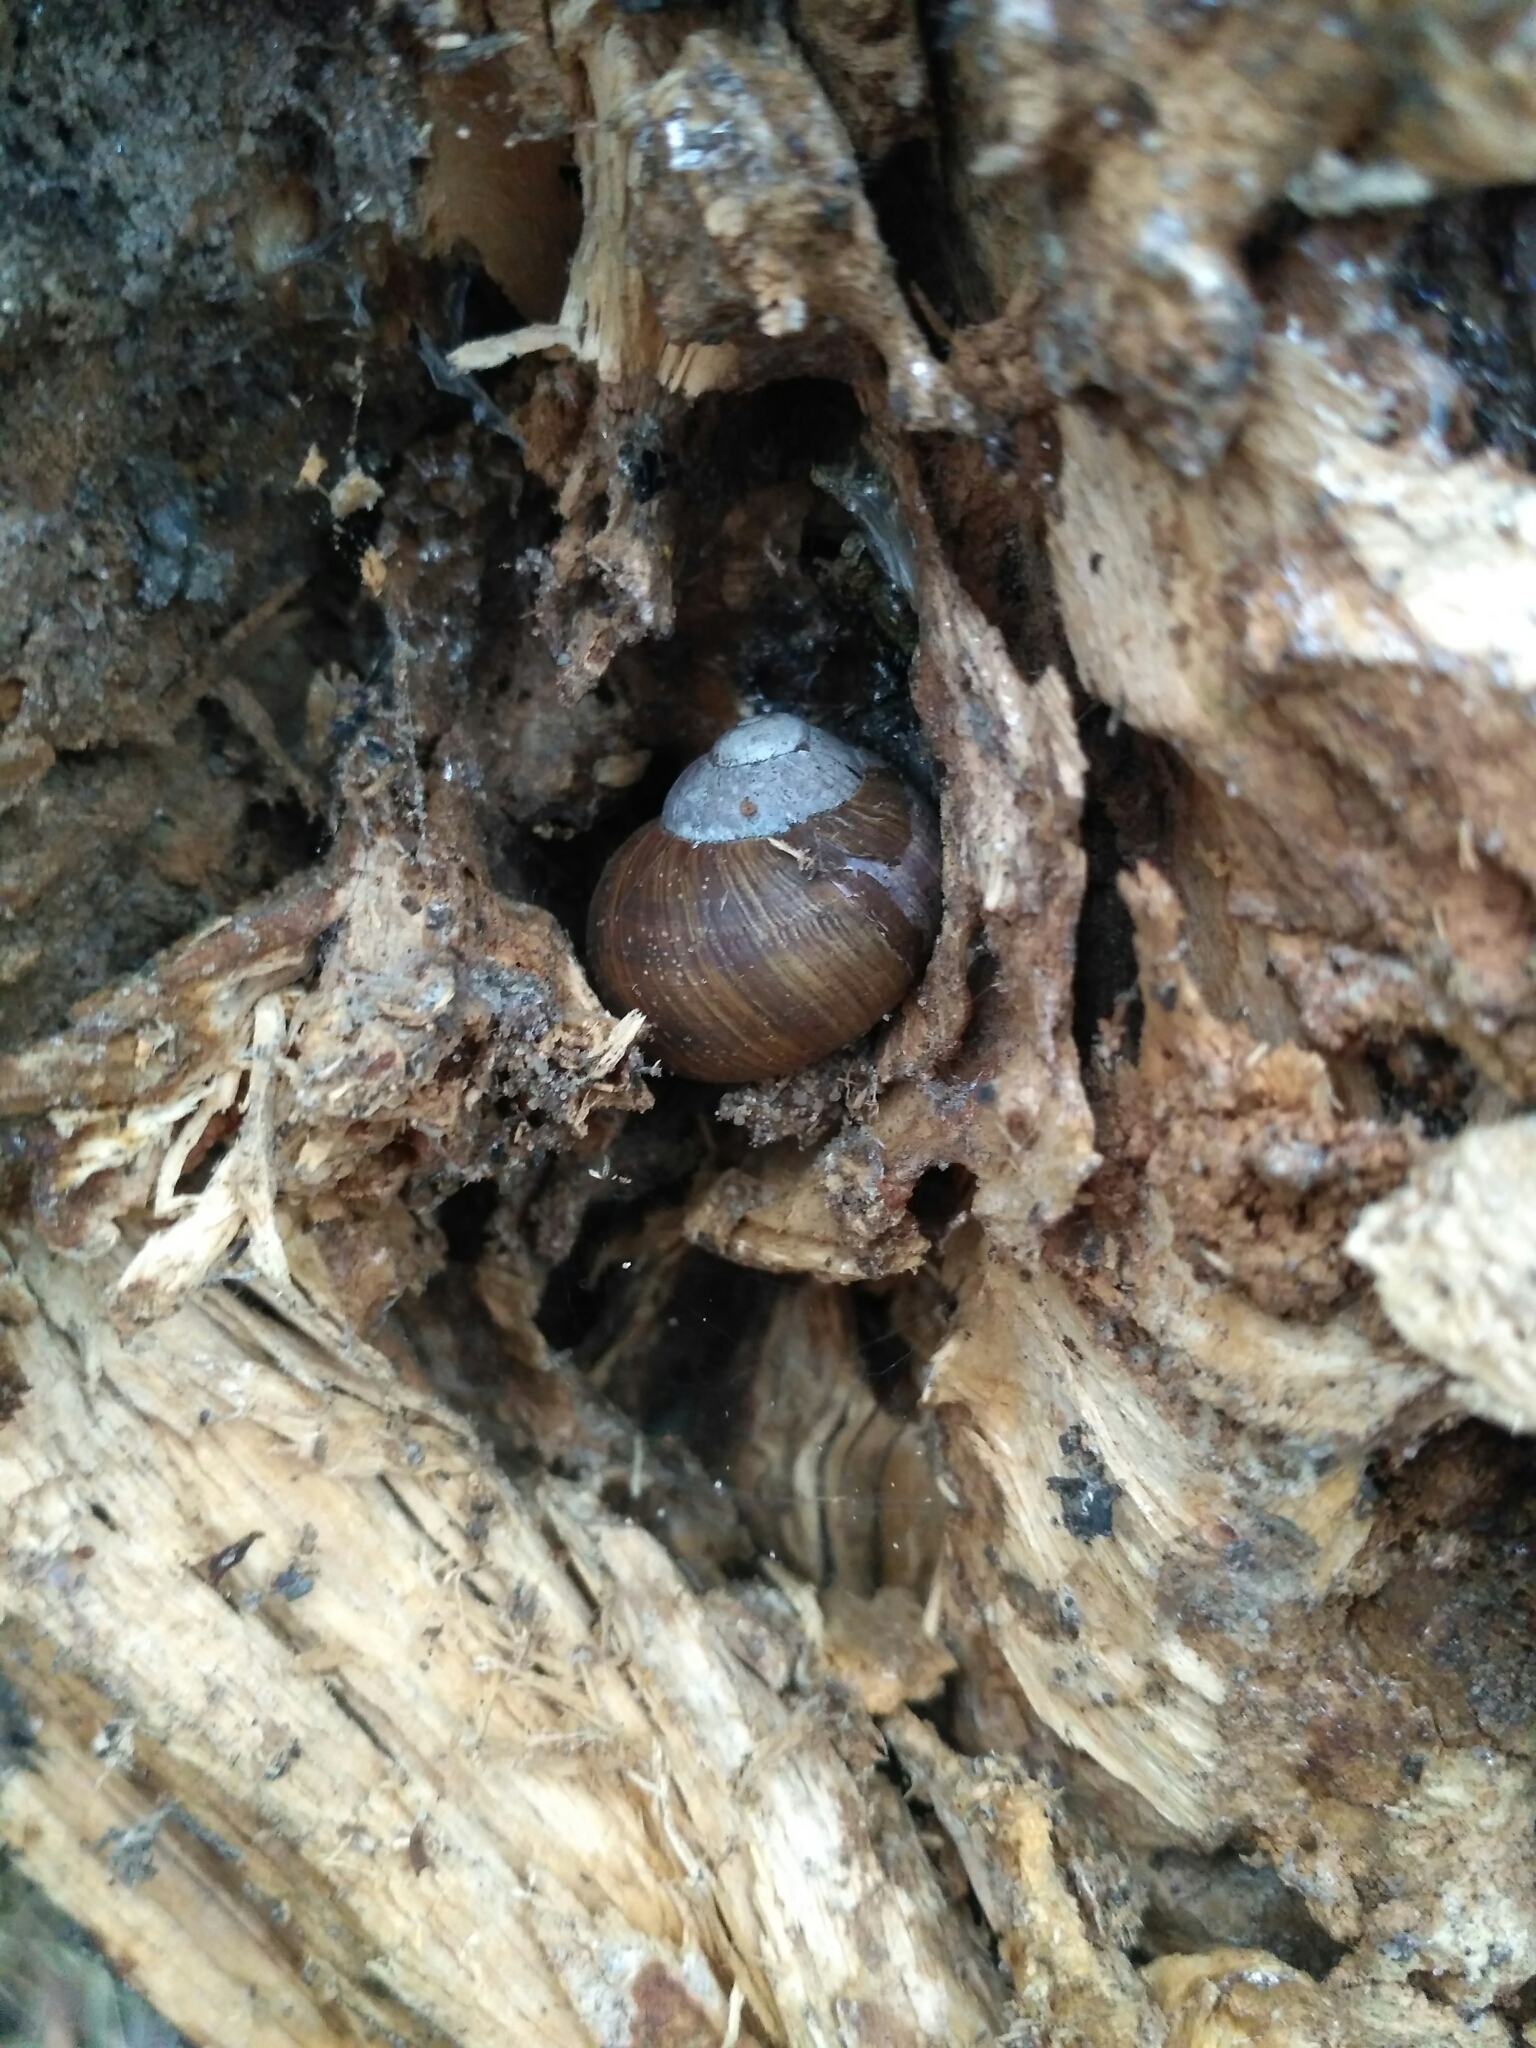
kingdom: Animalia
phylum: Mollusca
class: Gastropoda
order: Stylommatophora
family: Helicidae
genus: Helix
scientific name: Helix pomatia
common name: Roman snail
